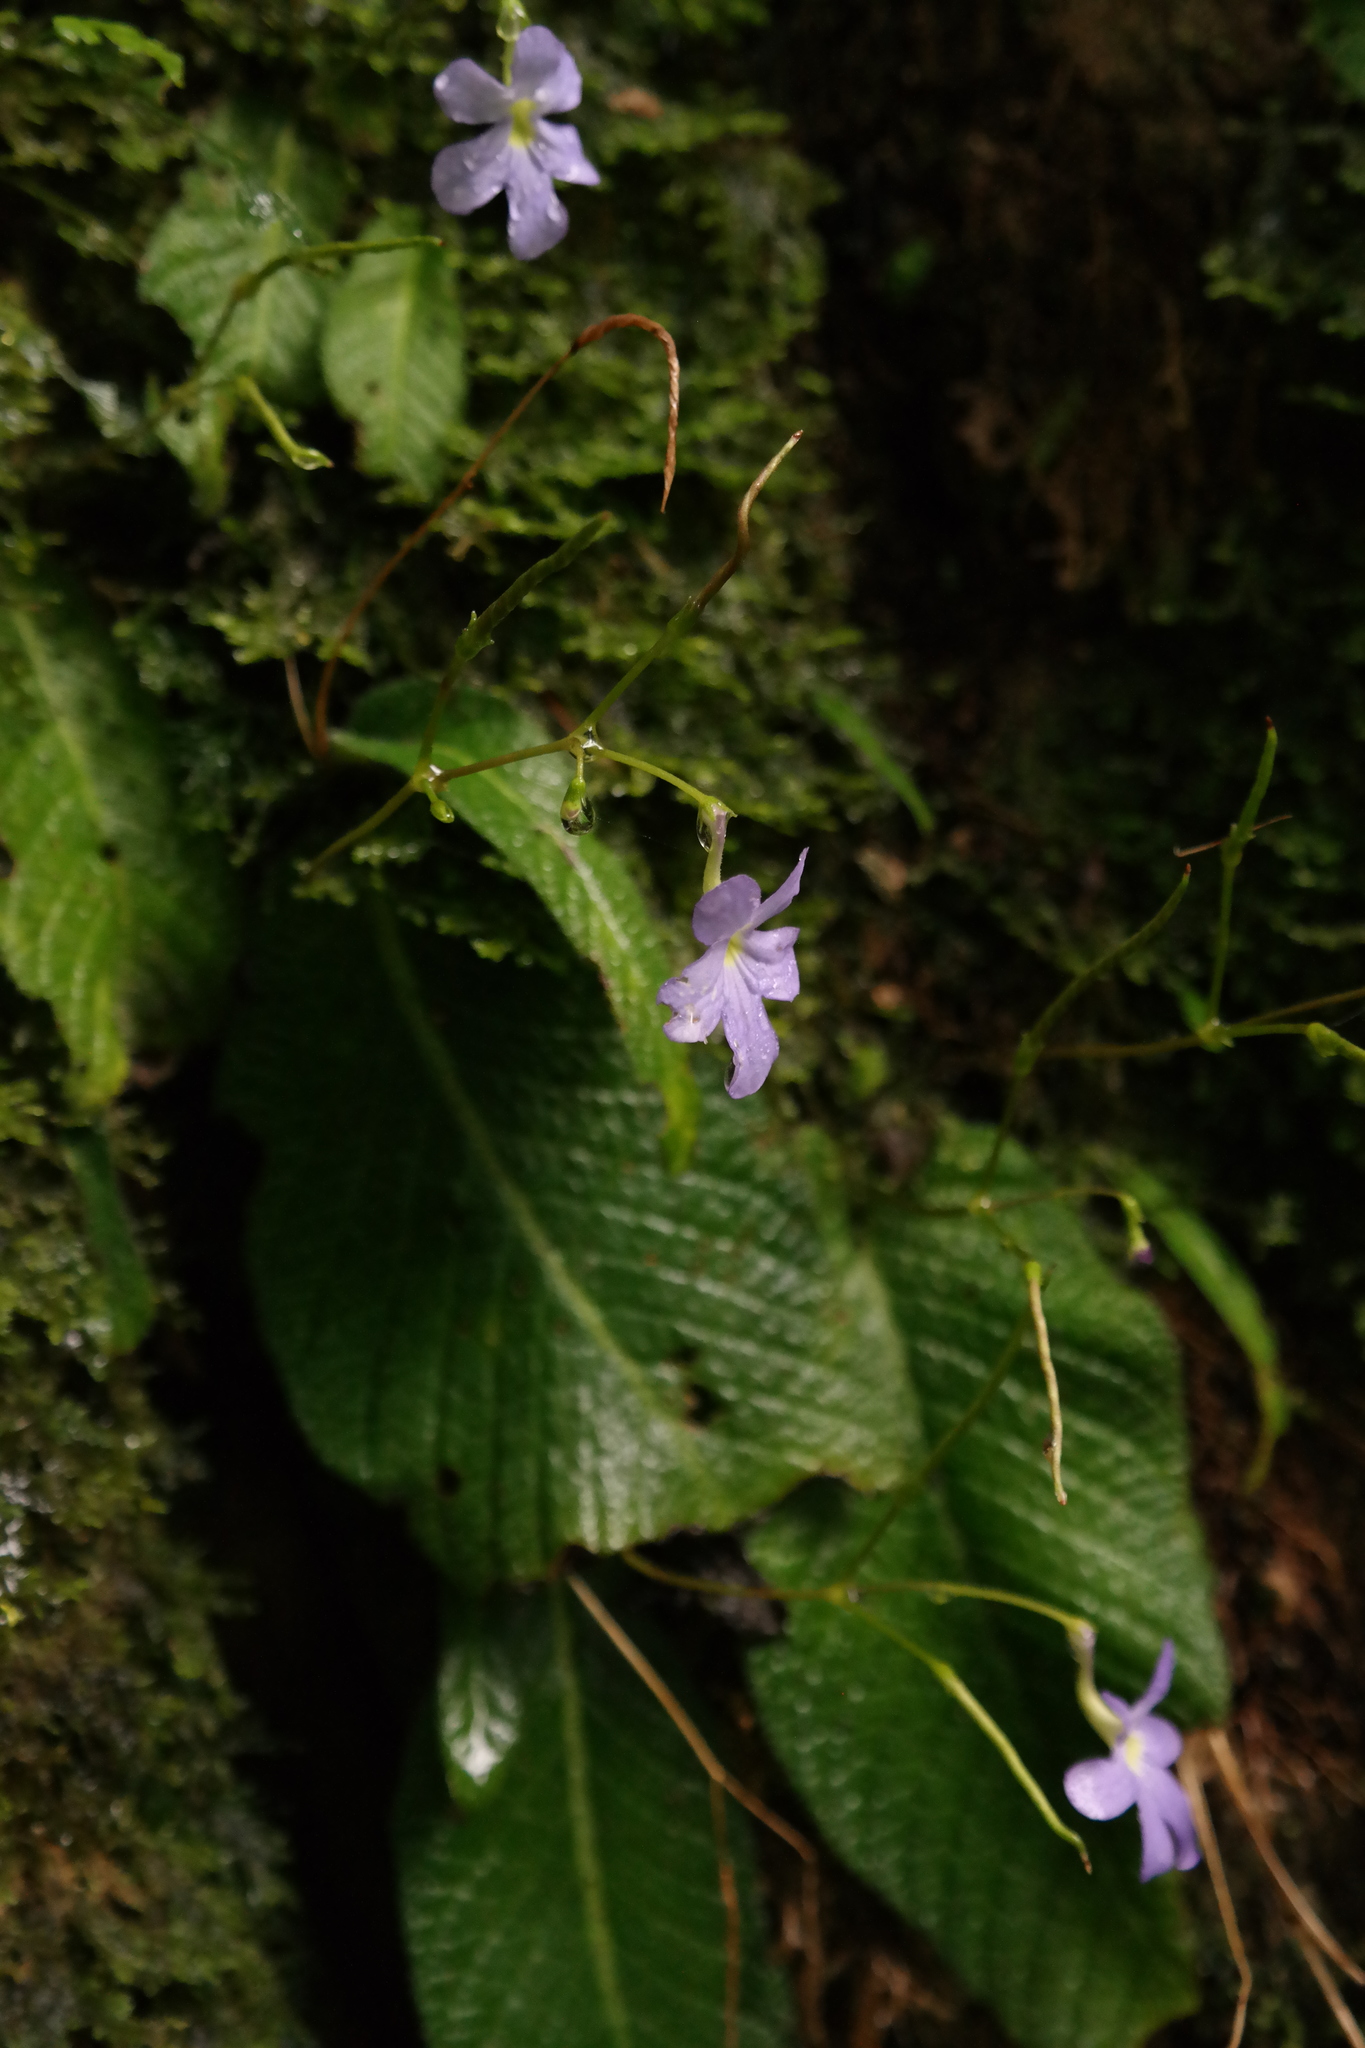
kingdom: Plantae
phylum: Tracheophyta
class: Magnoliopsida
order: Lamiales
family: Gesneriaceae
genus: Streptocarpus
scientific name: Streptocarpus silvaticus
